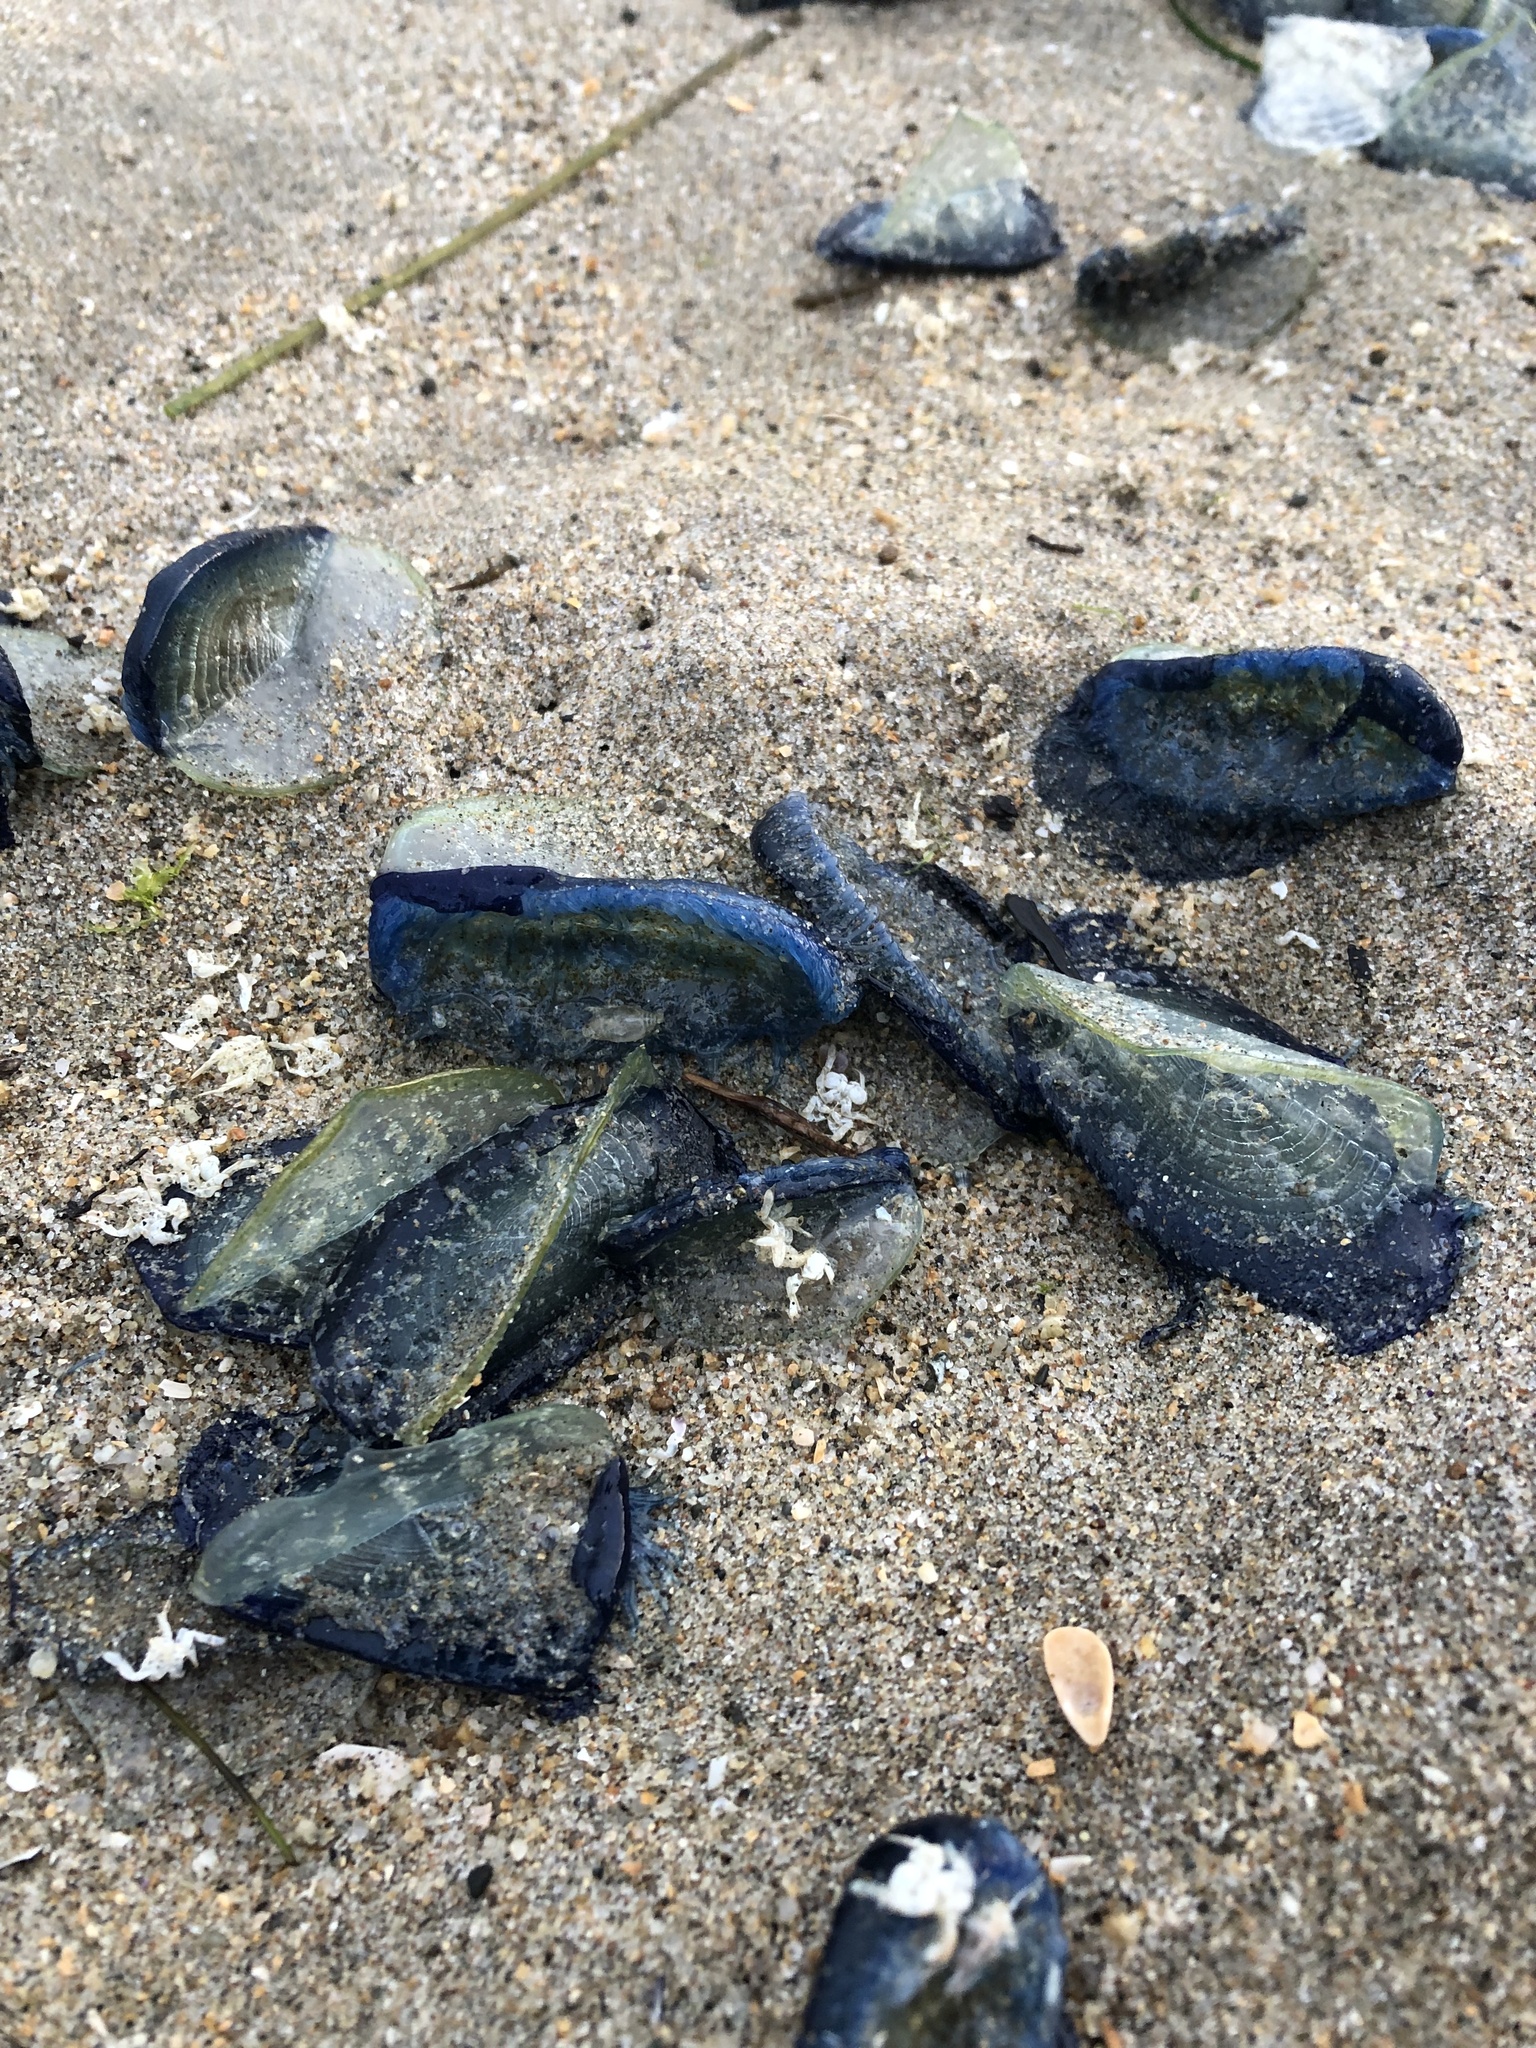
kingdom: Animalia
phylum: Cnidaria
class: Hydrozoa
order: Anthoathecata
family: Porpitidae
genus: Velella
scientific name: Velella velella
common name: By-the-wind-sailor
